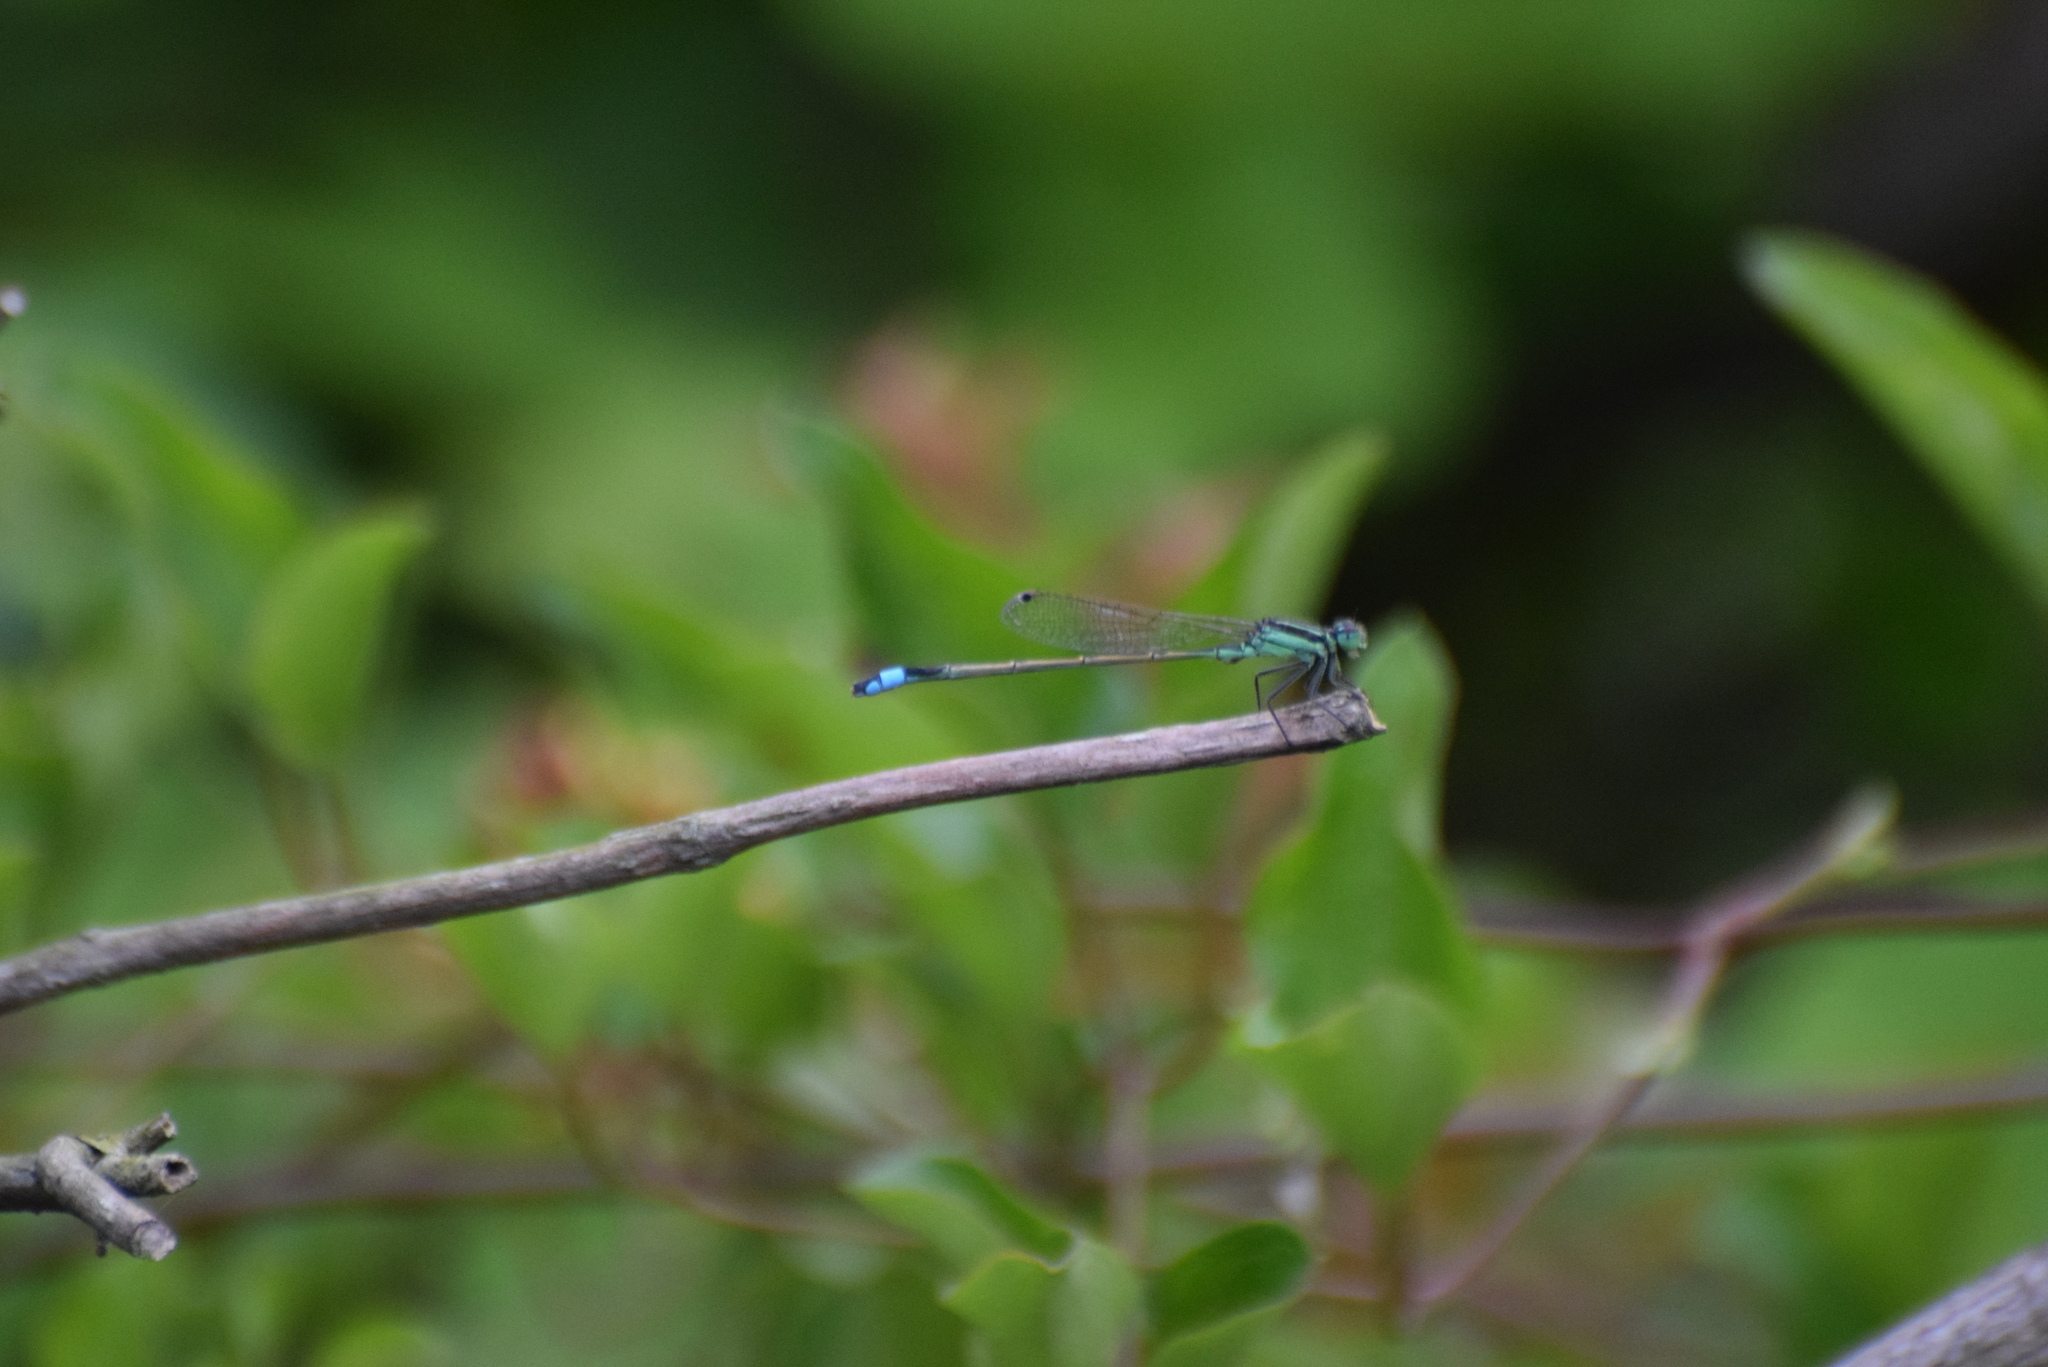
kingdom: Animalia
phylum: Arthropoda
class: Insecta
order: Odonata
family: Coenagrionidae
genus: Ischnura
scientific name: Ischnura ramburii
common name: Rambur's forktail
